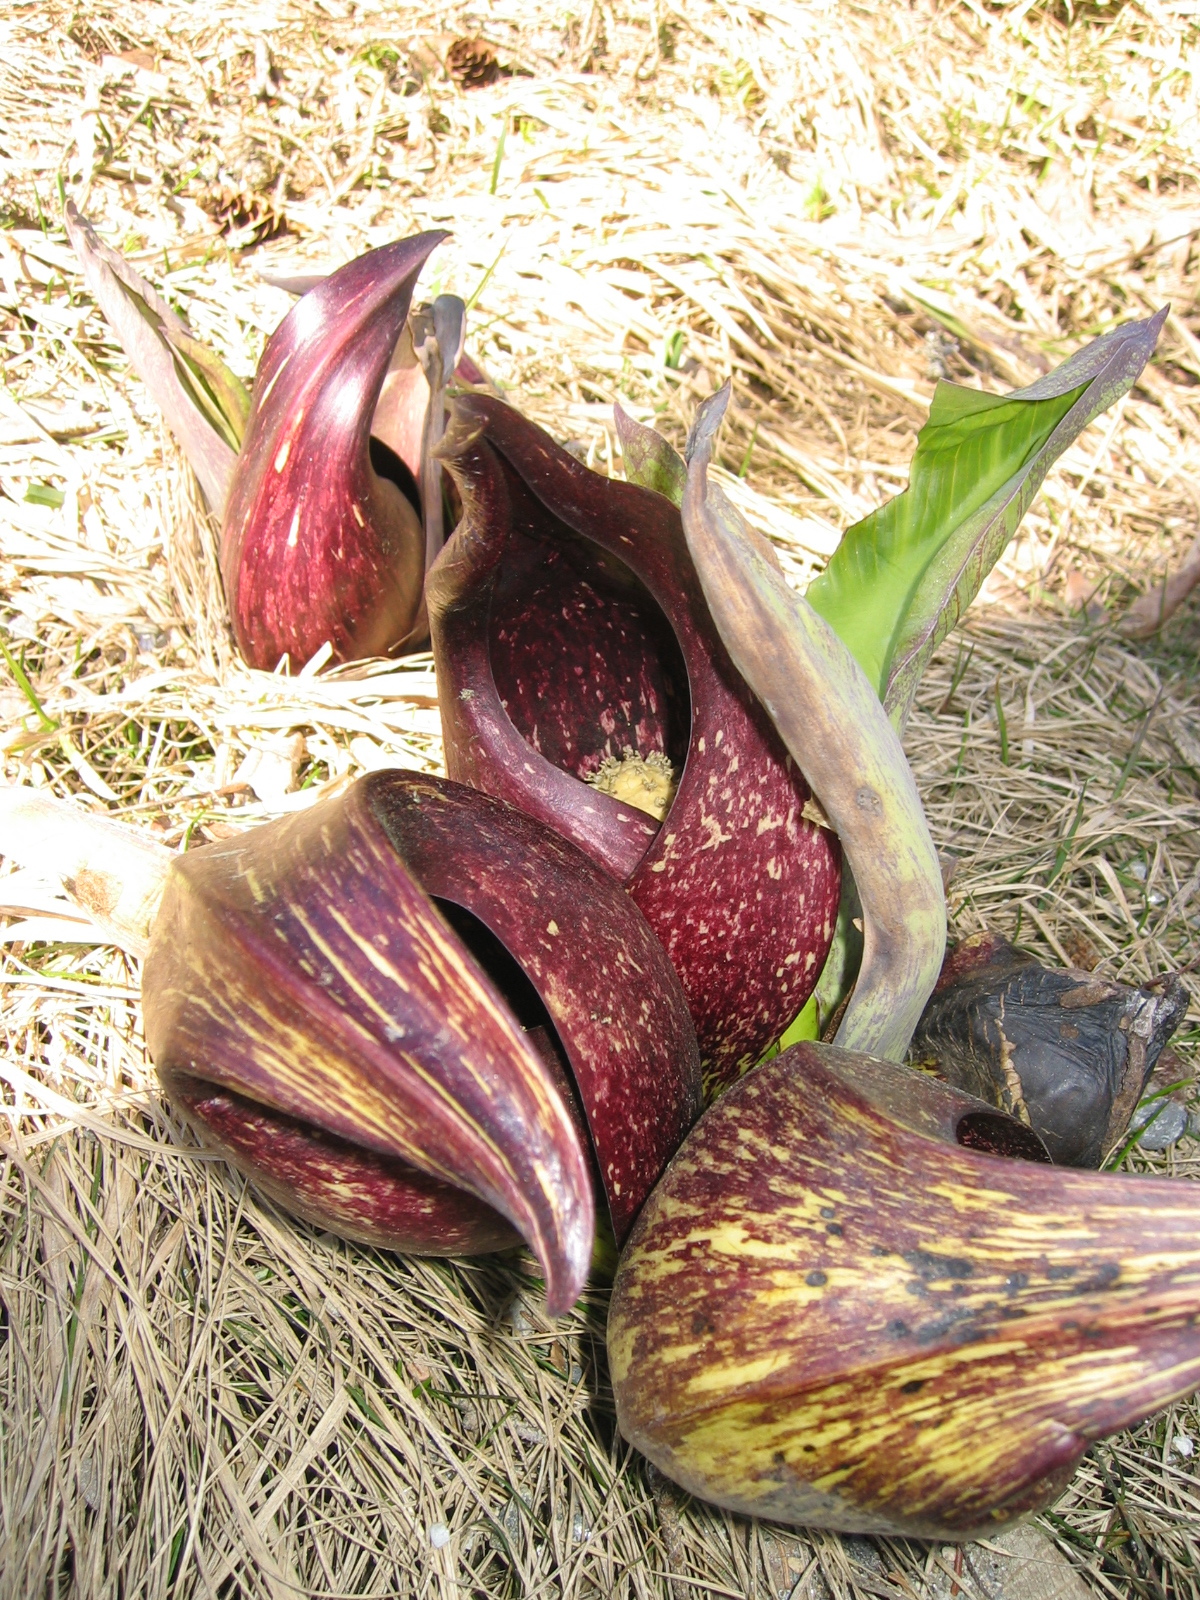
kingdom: Plantae
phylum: Tracheophyta
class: Liliopsida
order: Alismatales
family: Araceae
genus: Symplocarpus
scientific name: Symplocarpus foetidus
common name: Eastern skunk cabbage
